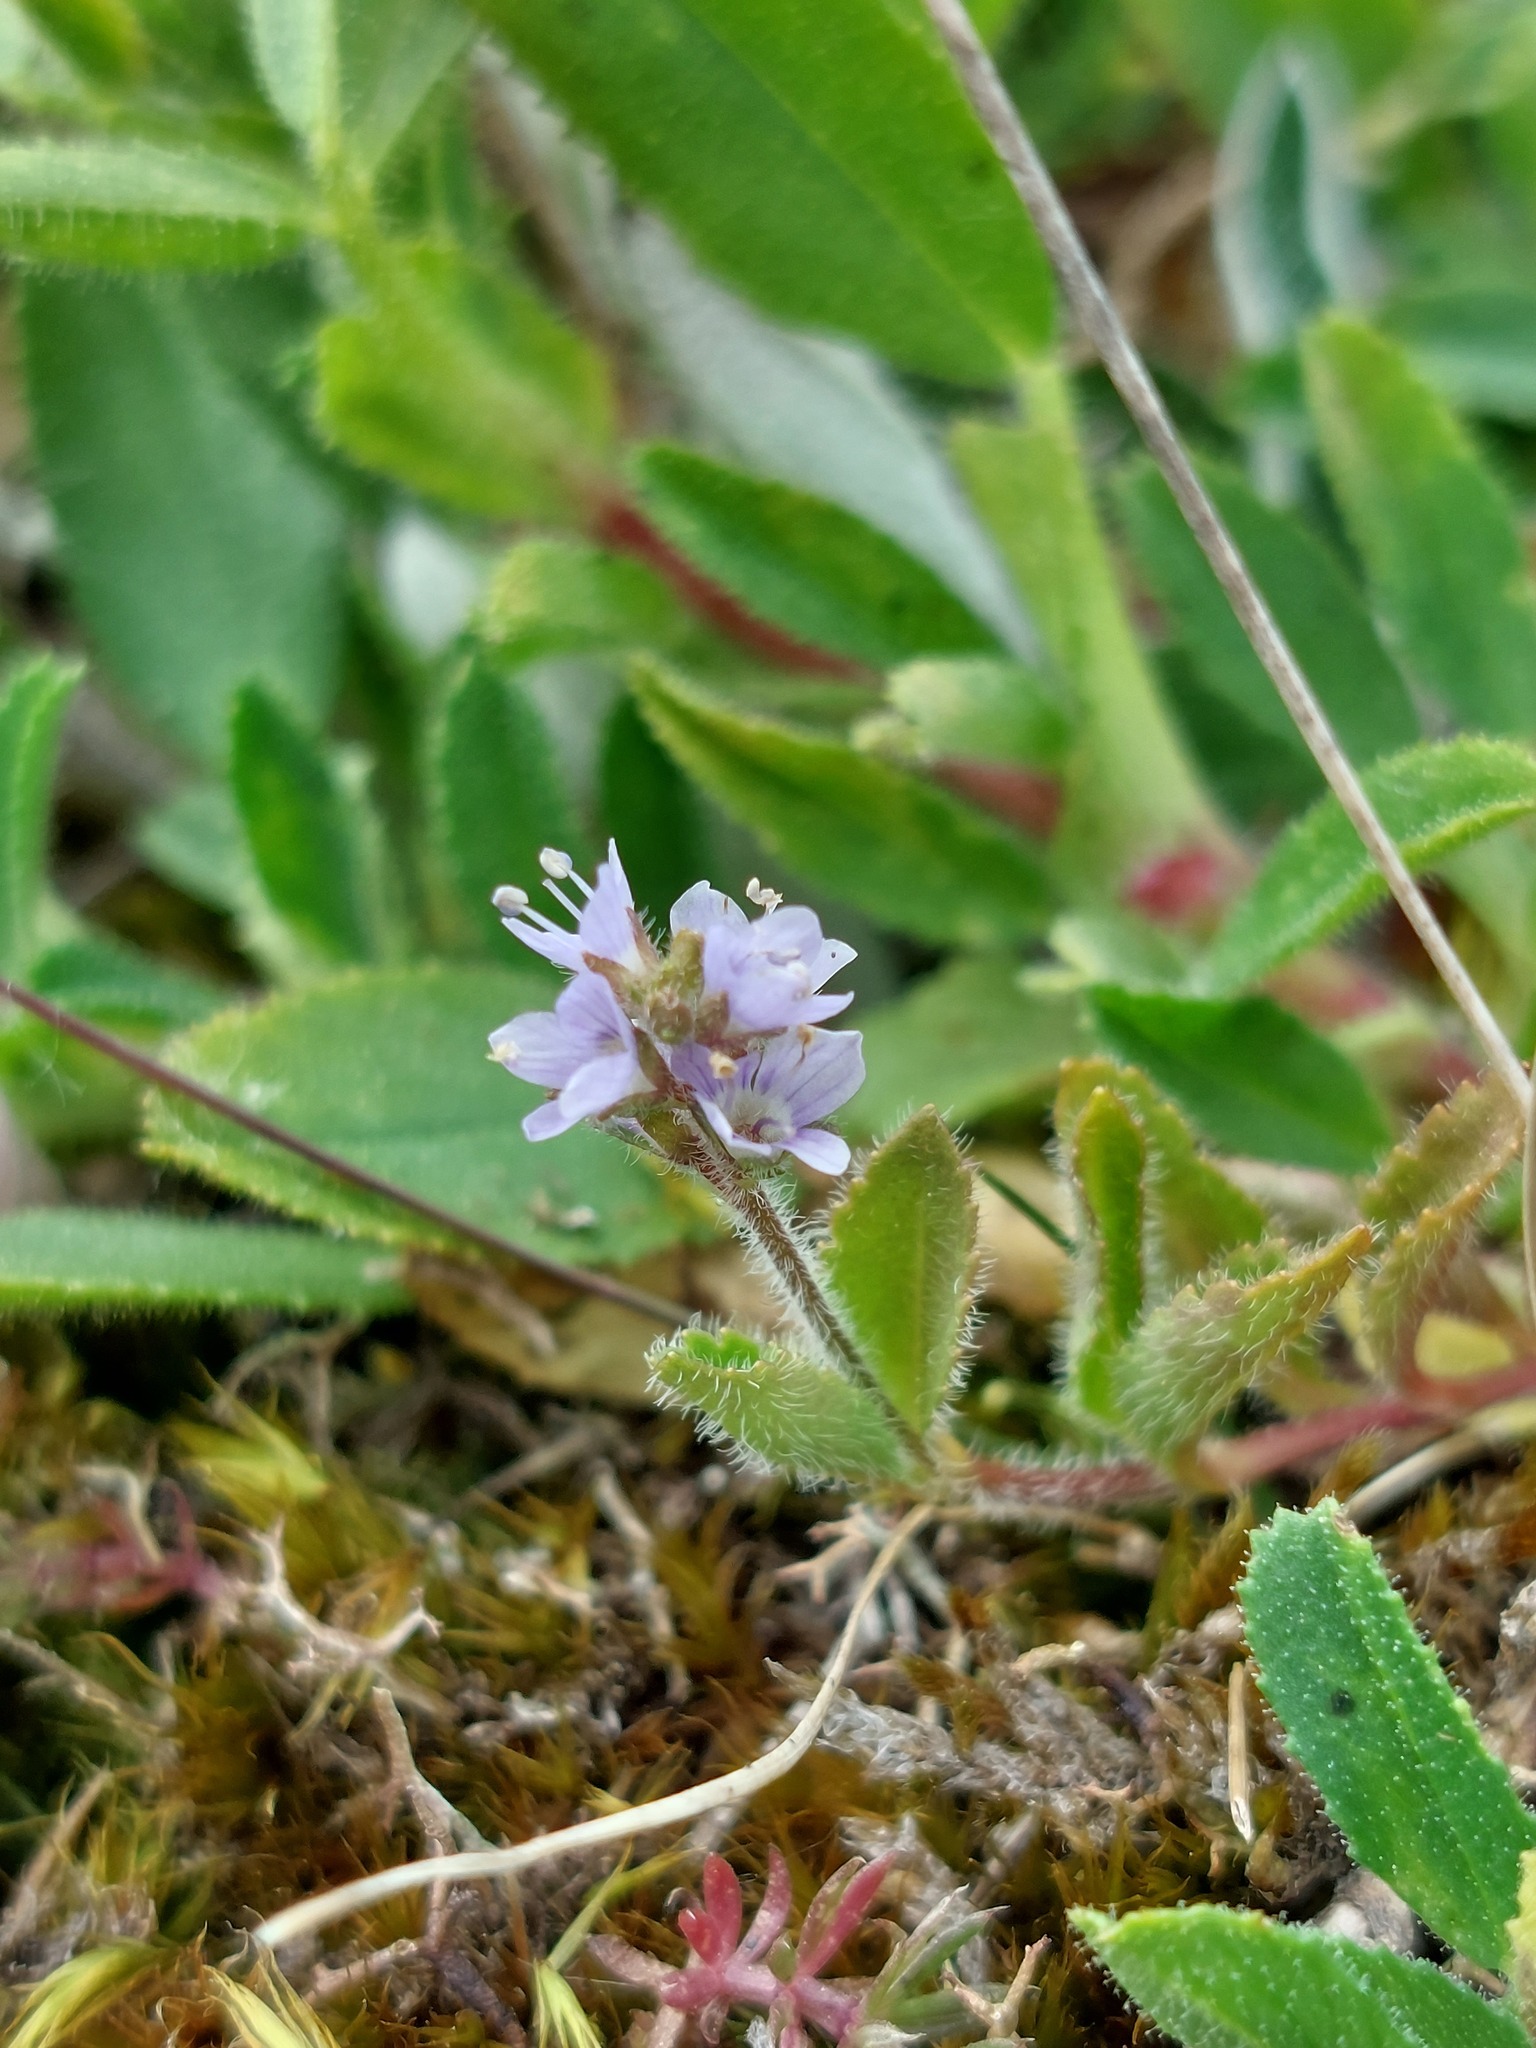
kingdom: Plantae
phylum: Tracheophyta
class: Magnoliopsida
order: Lamiales
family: Plantaginaceae
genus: Veronica
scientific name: Veronica officinalis
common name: Common speedwell
